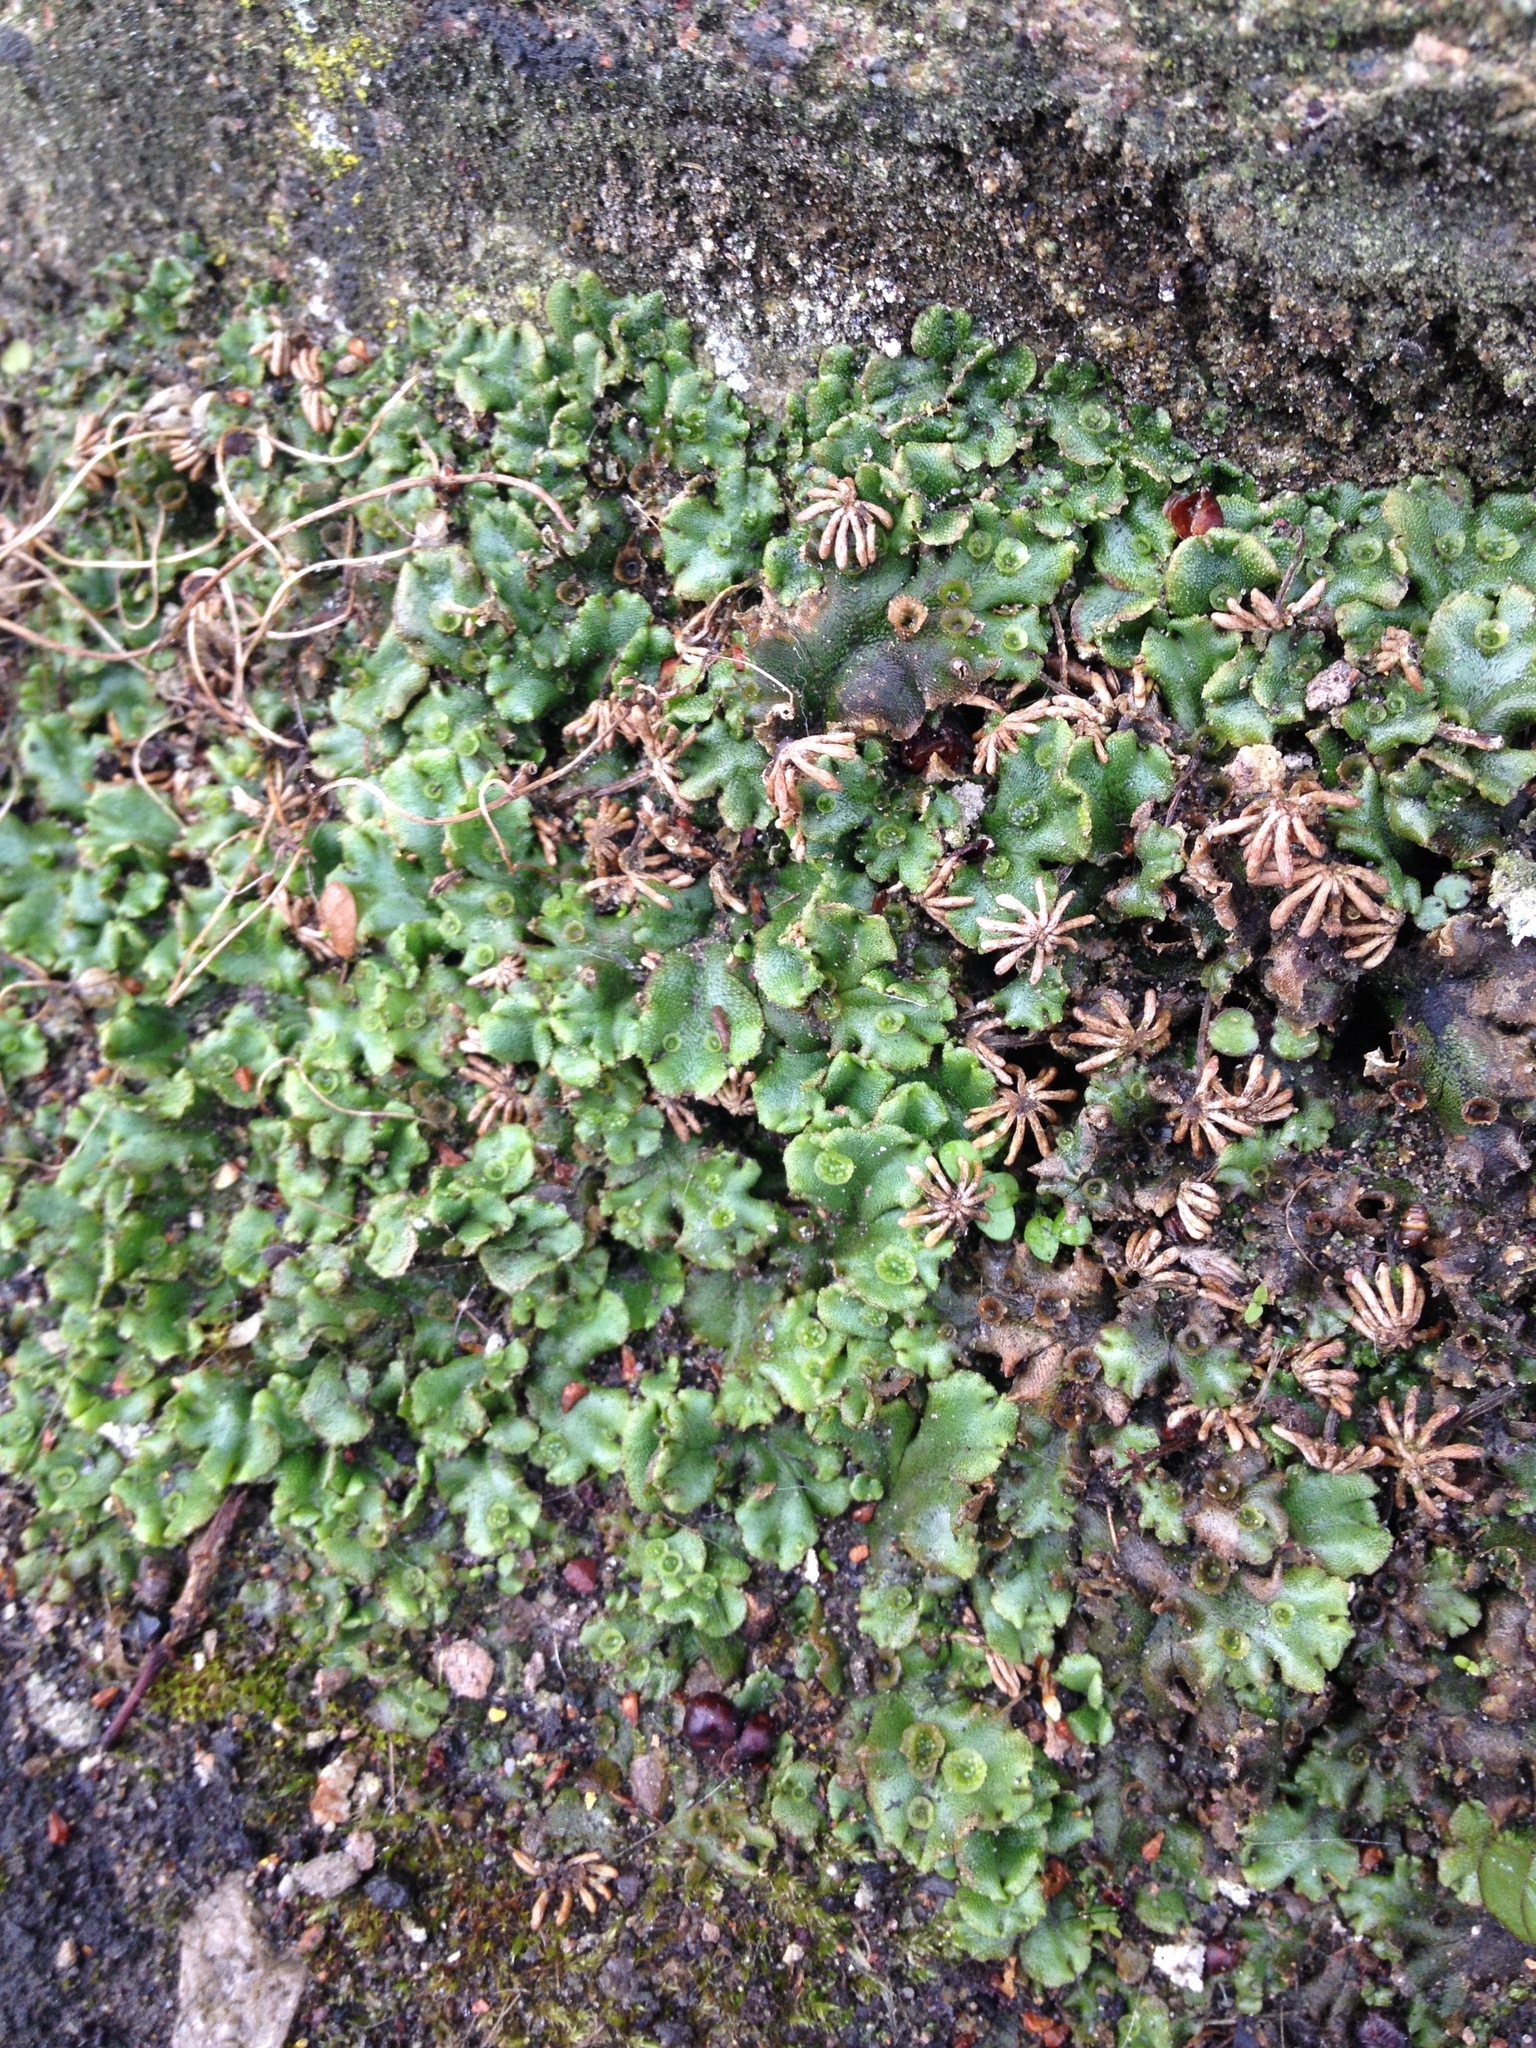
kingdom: Plantae
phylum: Marchantiophyta
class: Marchantiopsida
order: Marchantiales
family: Marchantiaceae
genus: Marchantia
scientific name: Marchantia polymorpha
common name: Common liverwort
